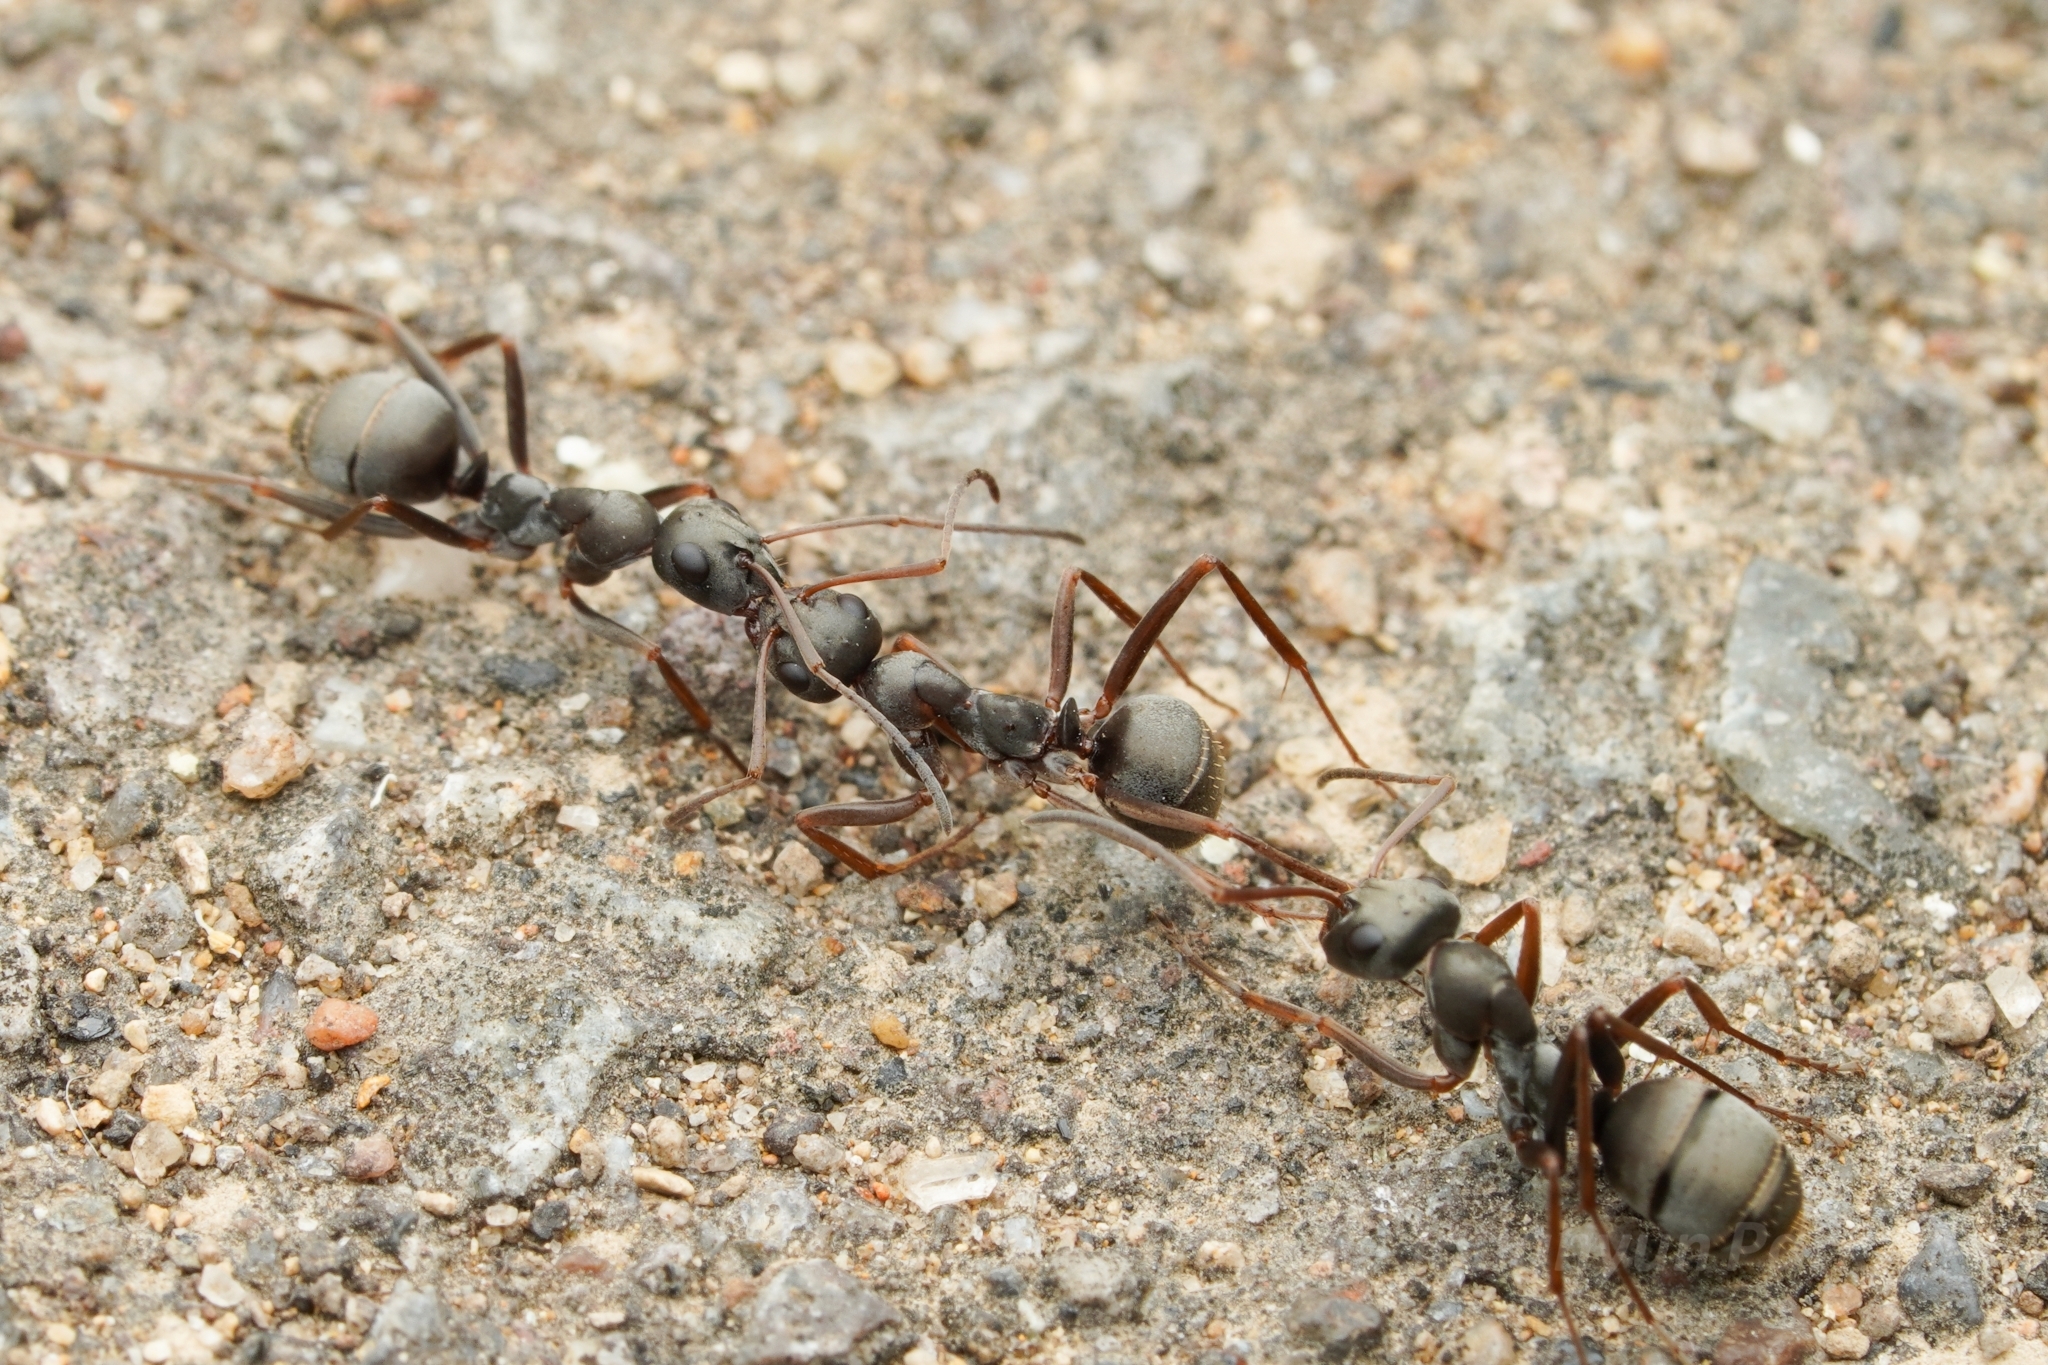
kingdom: Animalia
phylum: Arthropoda
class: Insecta
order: Hymenoptera
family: Formicidae
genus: Formica
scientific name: Formica japonica
